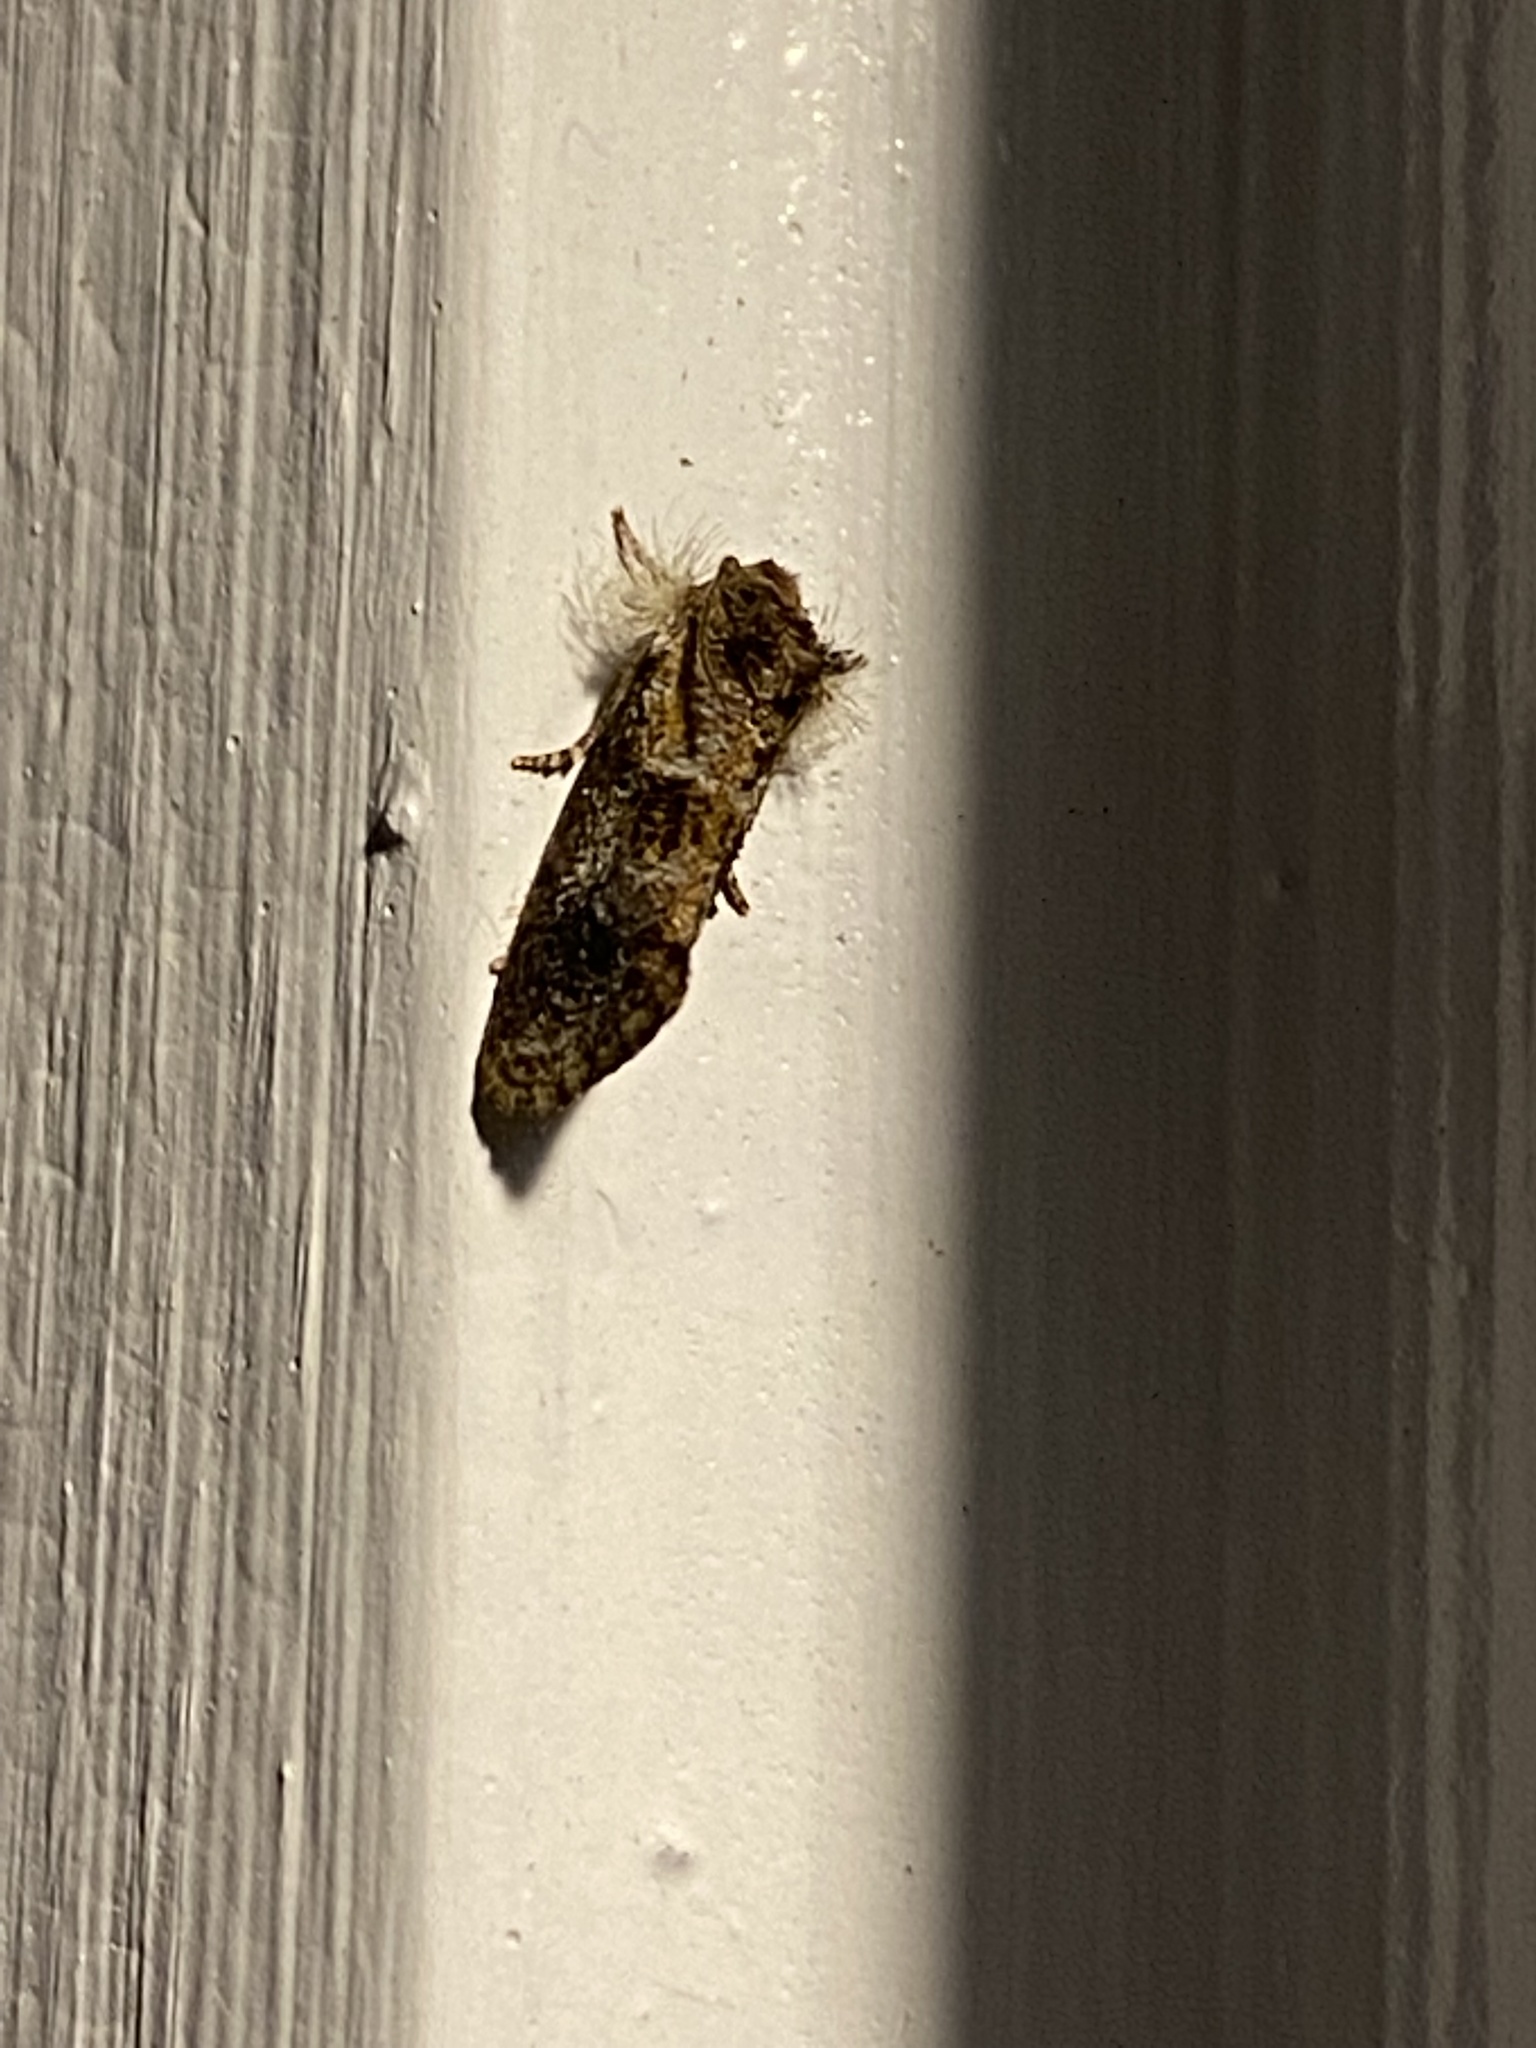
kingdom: Animalia
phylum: Arthropoda
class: Insecta
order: Lepidoptera
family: Tineidae
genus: Acrolophus
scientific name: Acrolophus panamae
